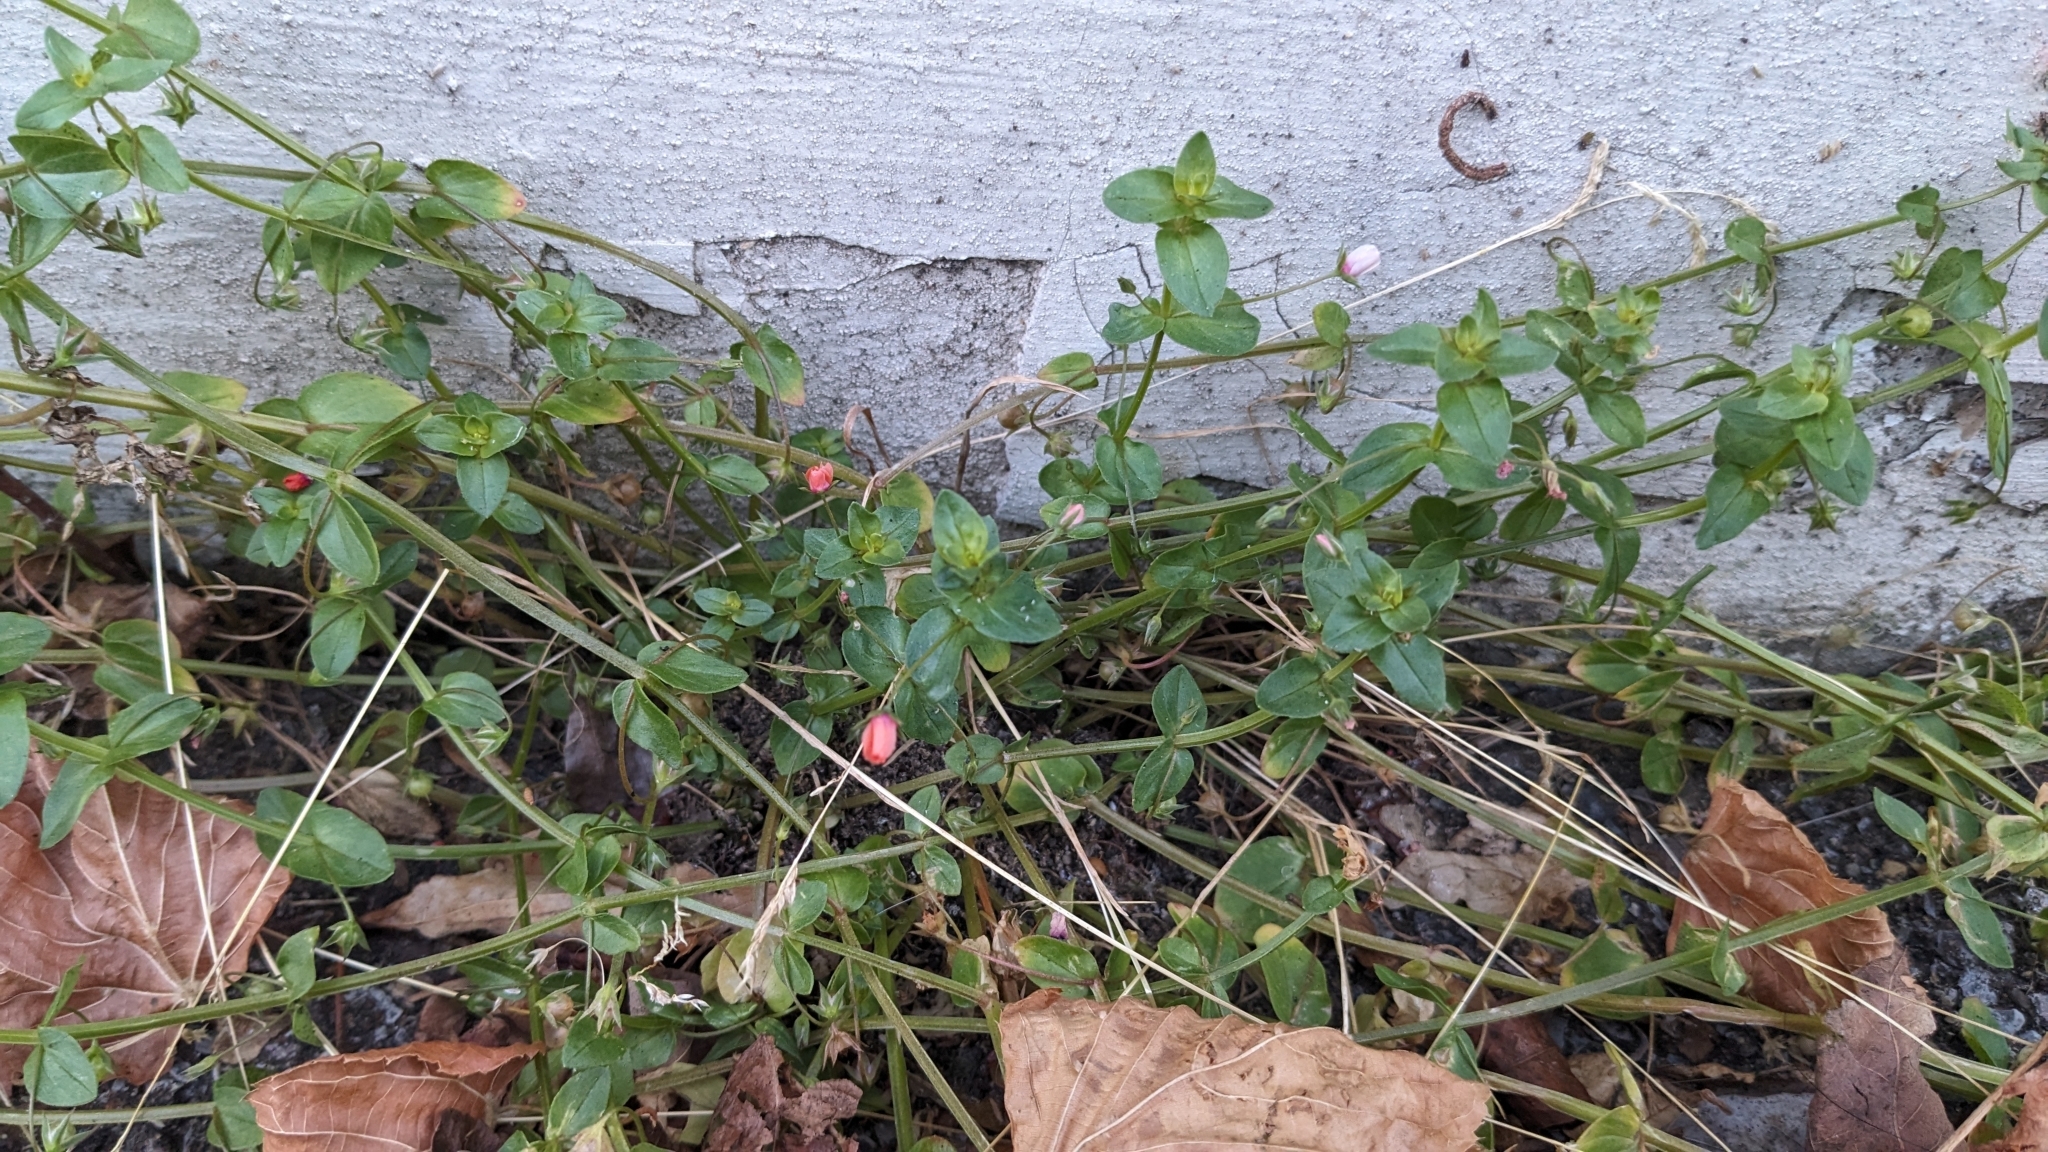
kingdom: Plantae
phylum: Tracheophyta
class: Magnoliopsida
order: Ericales
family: Primulaceae
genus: Lysimachia
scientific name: Lysimachia arvensis
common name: Scarlet pimpernel
